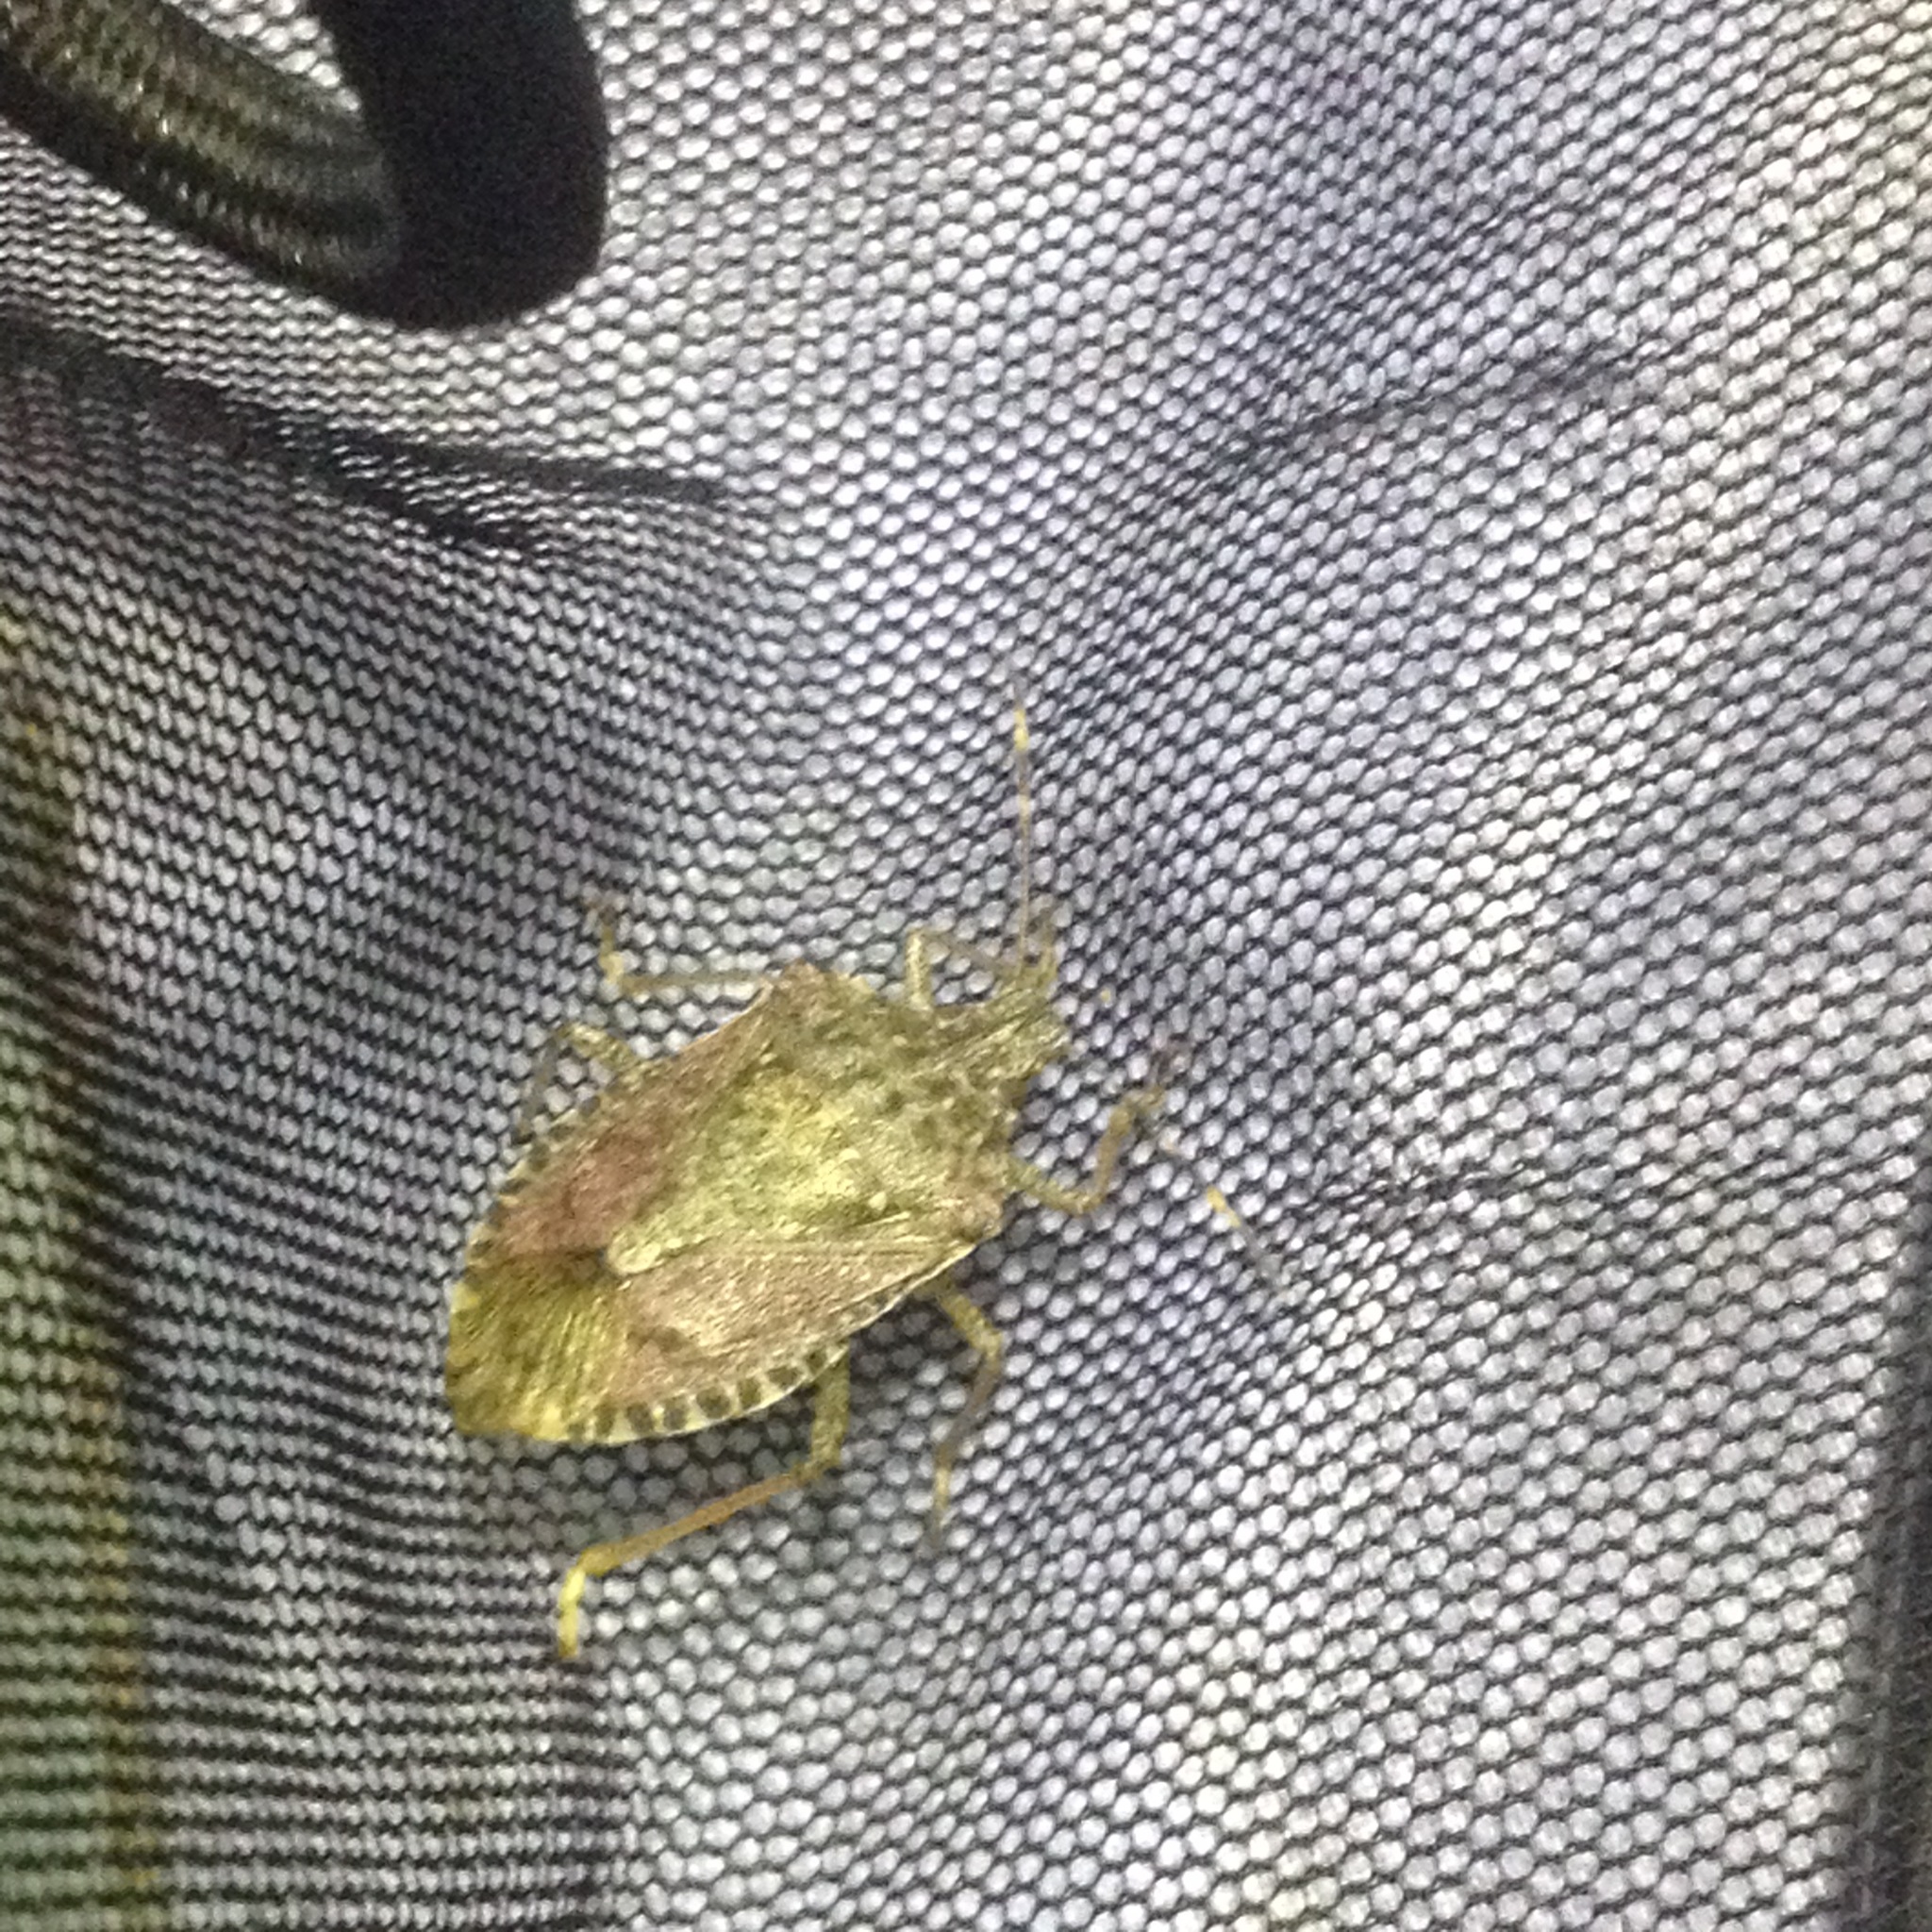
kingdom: Animalia
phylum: Arthropoda
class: Insecta
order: Hemiptera
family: Pentatomidae
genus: Halyomorpha
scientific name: Halyomorpha halys
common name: Brown marmorated stink bug
